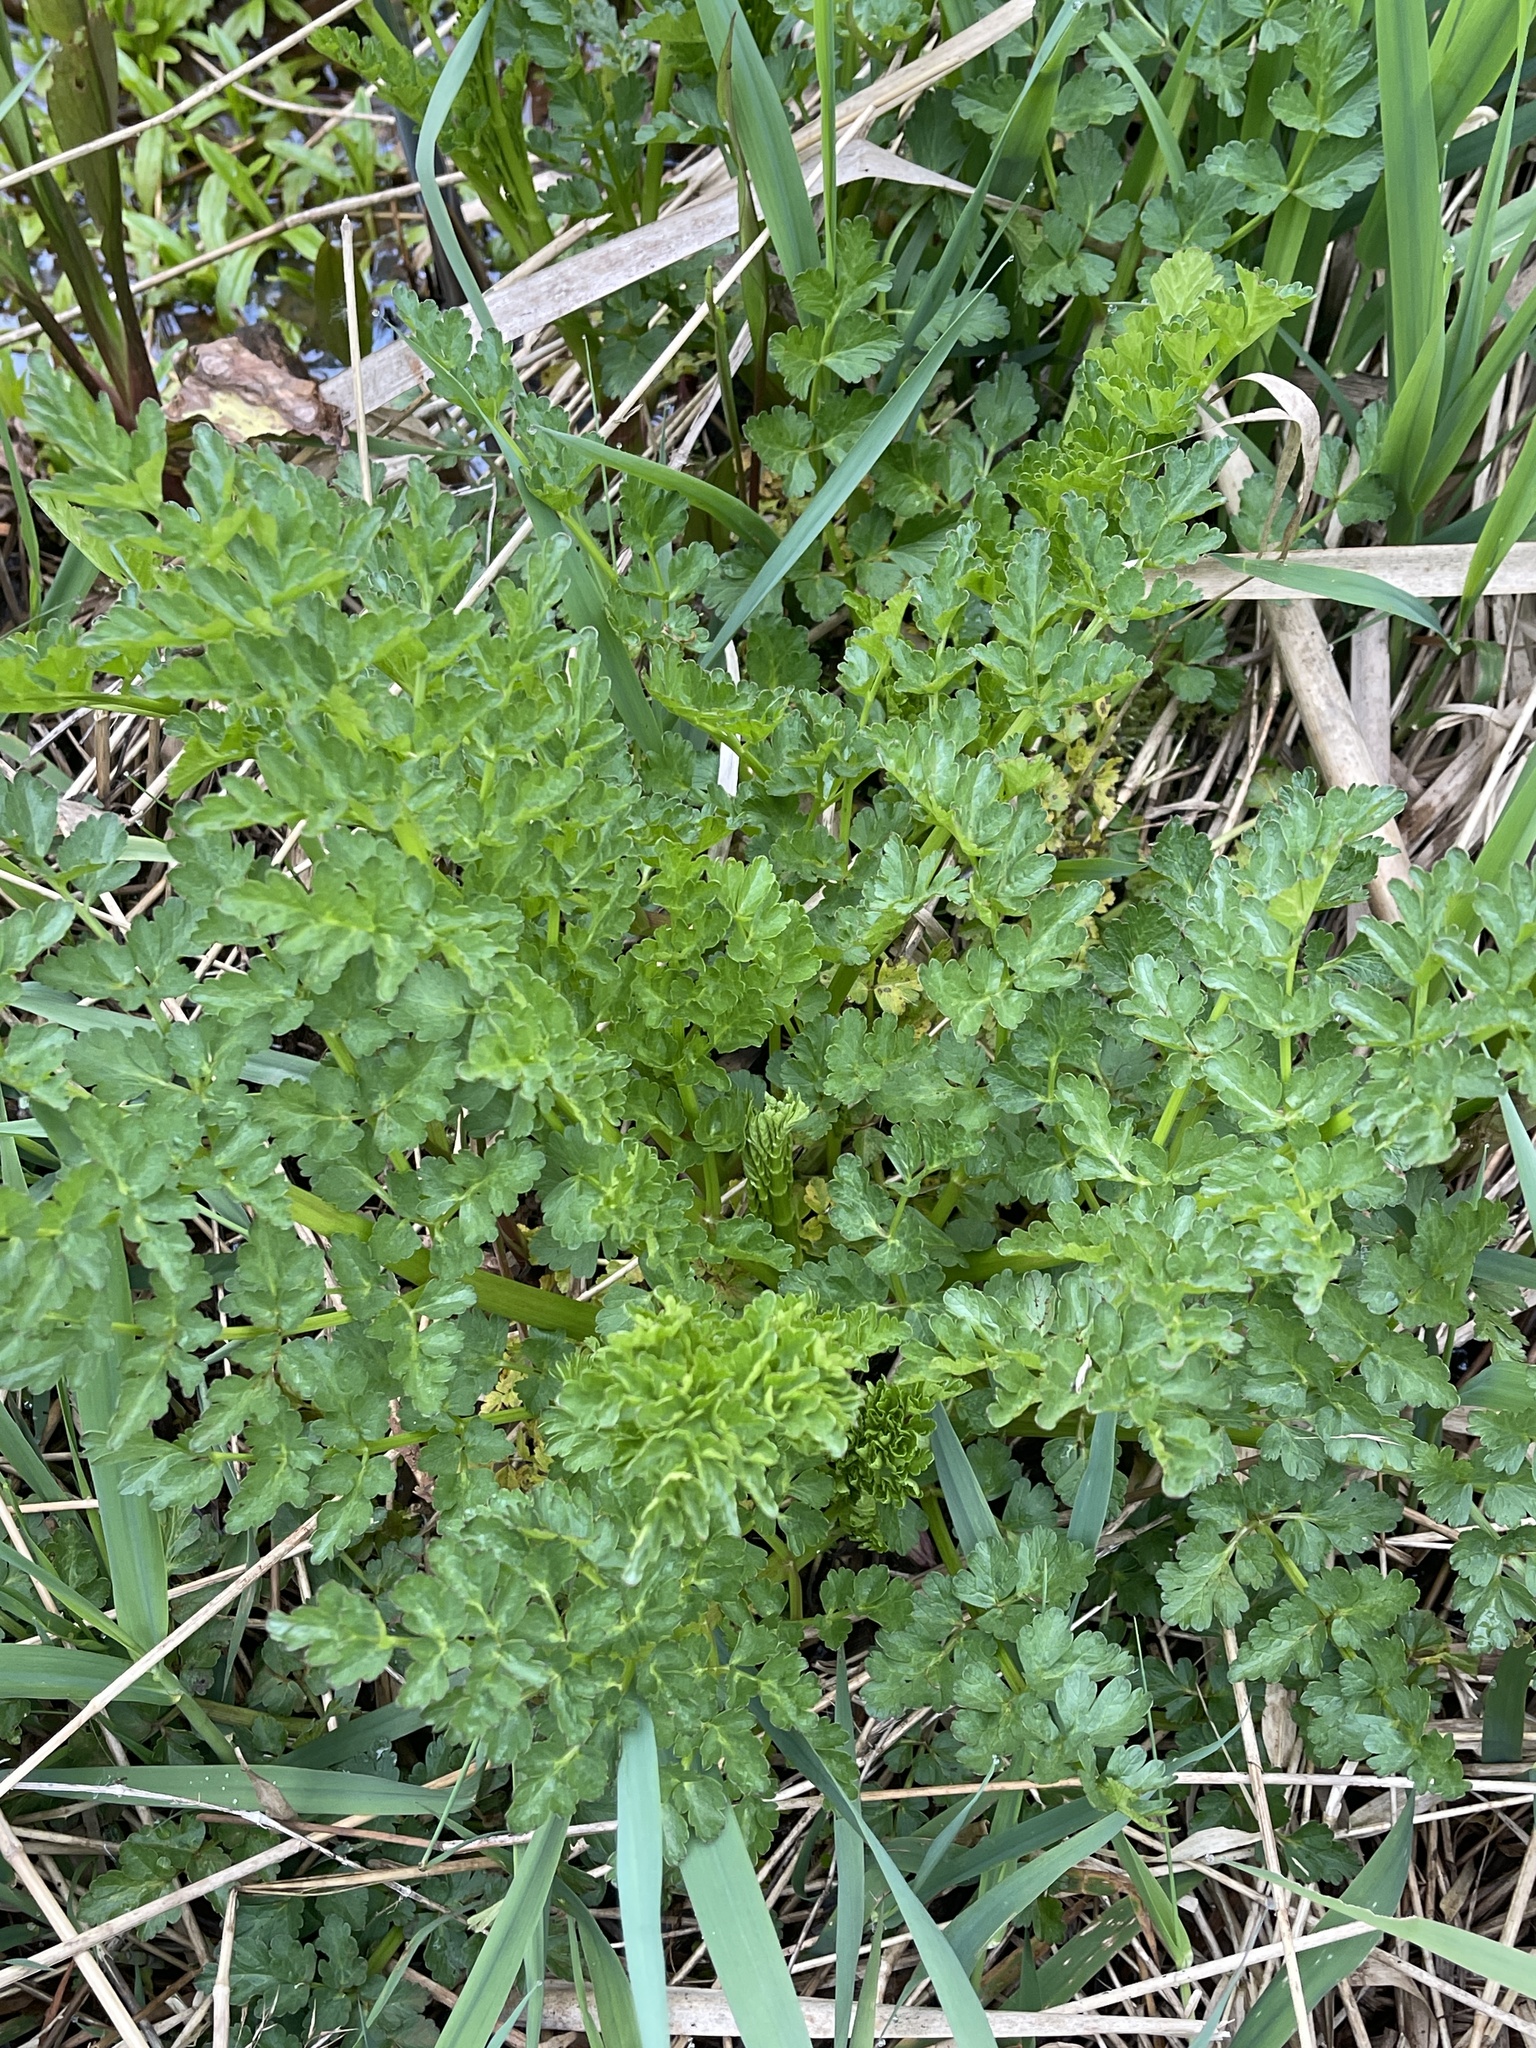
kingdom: Plantae
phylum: Tracheophyta
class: Magnoliopsida
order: Apiales
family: Apiaceae
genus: Oenanthe
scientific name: Oenanthe crocata
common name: Hemlock water-dropwort
